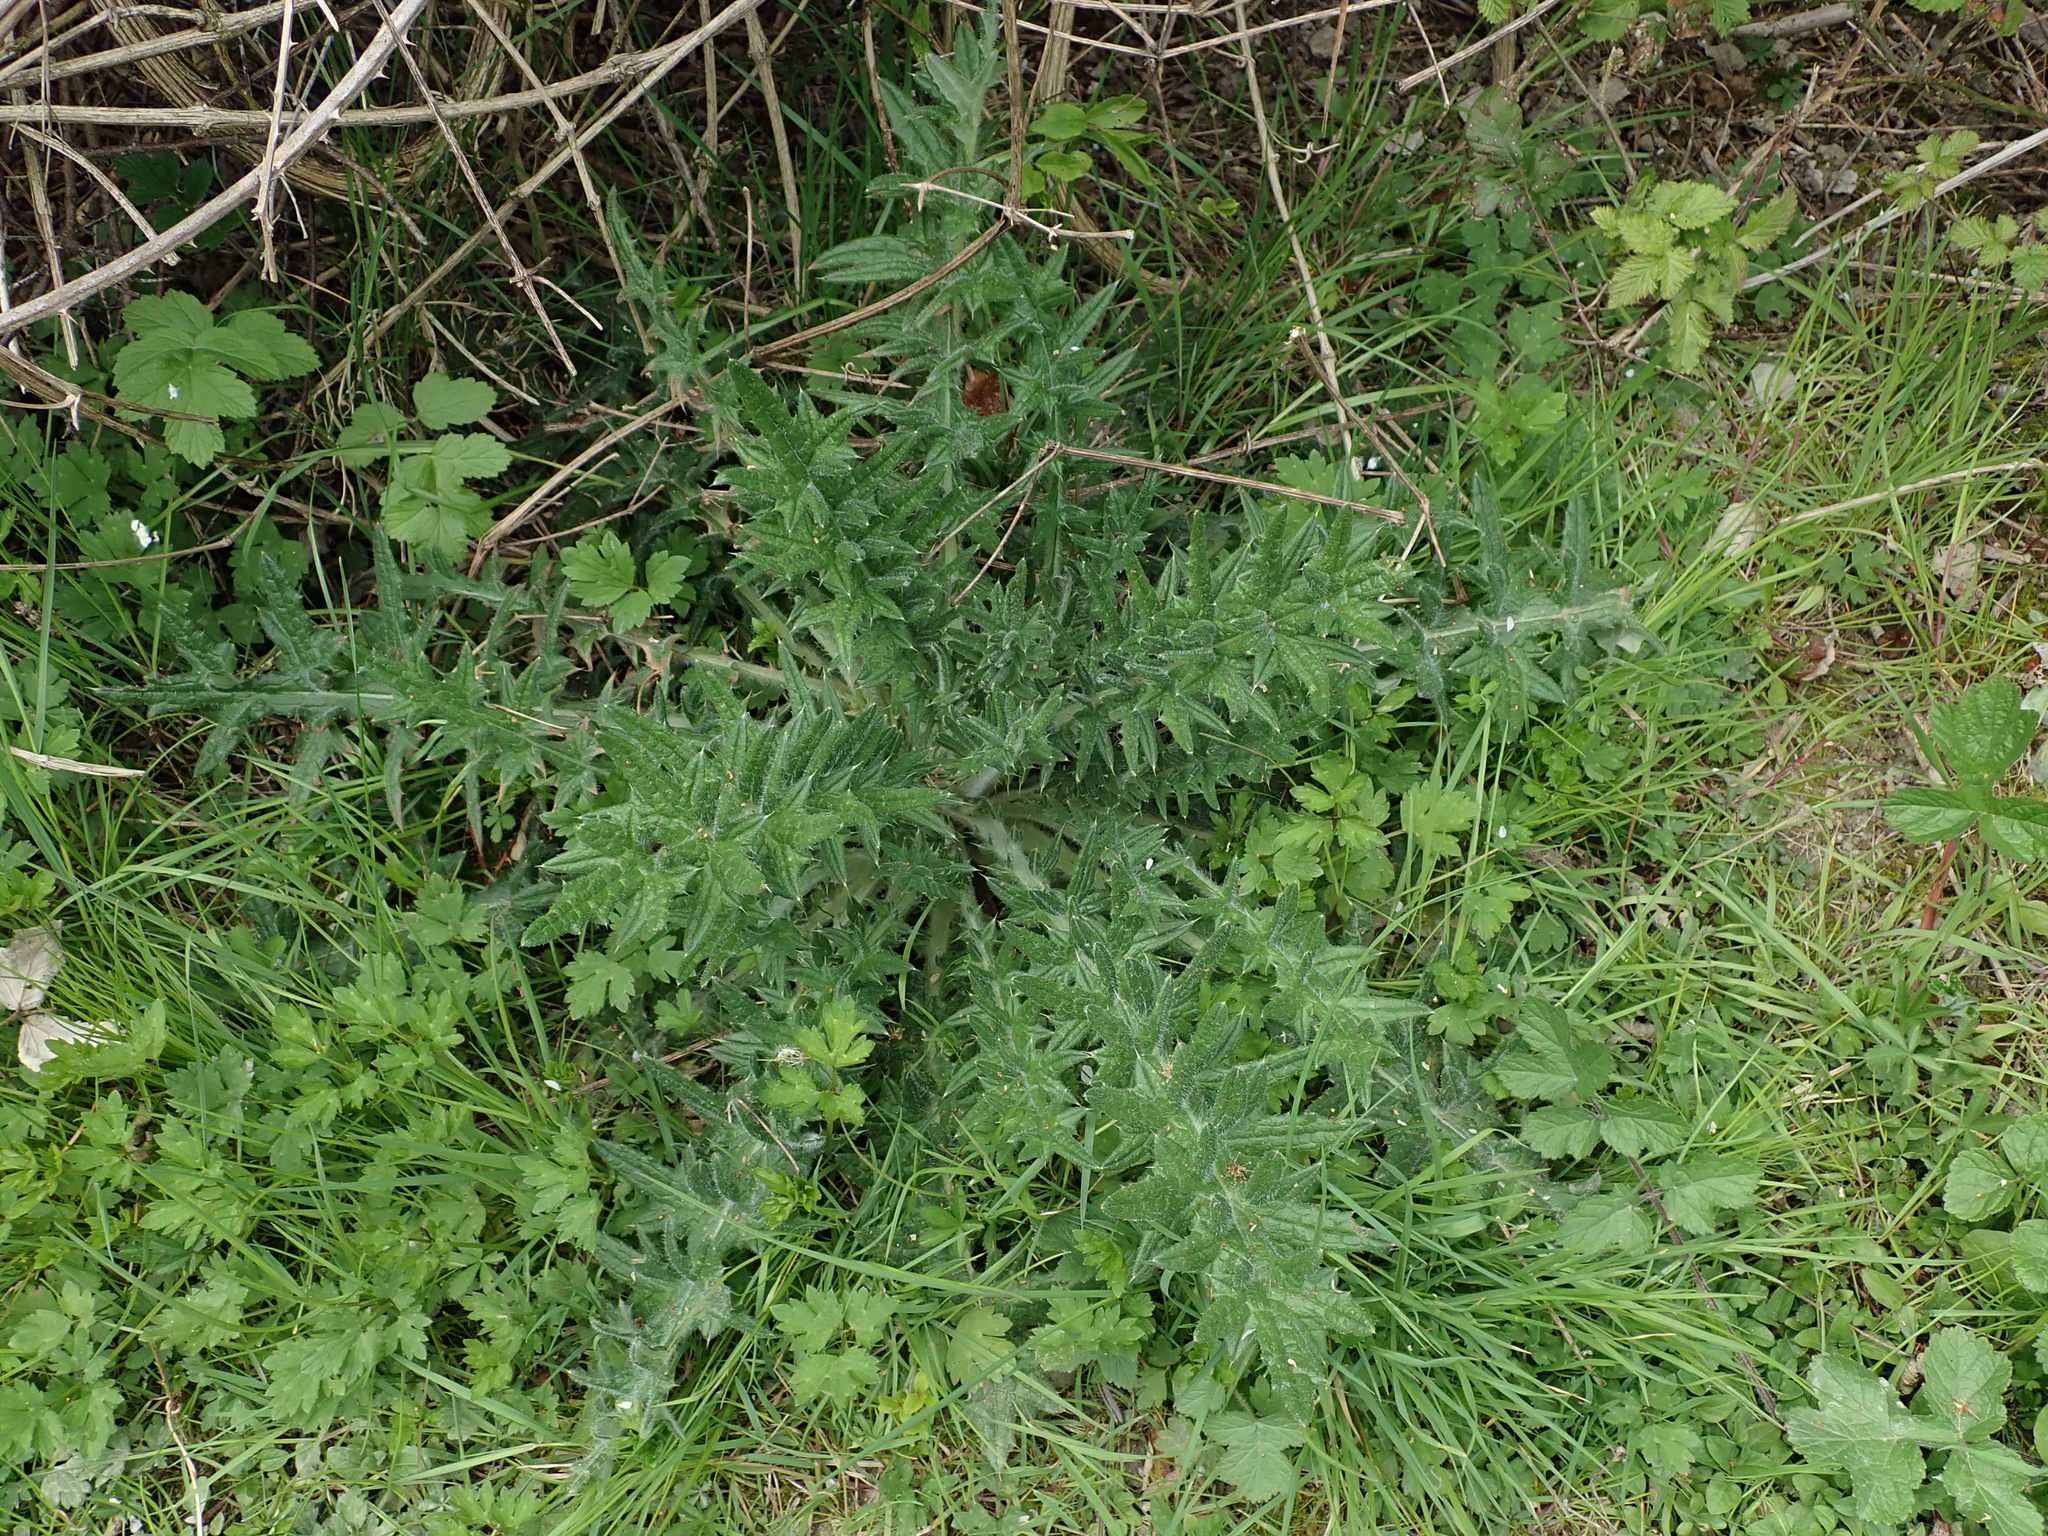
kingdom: Plantae
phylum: Tracheophyta
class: Magnoliopsida
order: Asterales
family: Asteraceae
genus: Cirsium
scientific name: Cirsium vulgare
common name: Bull thistle
